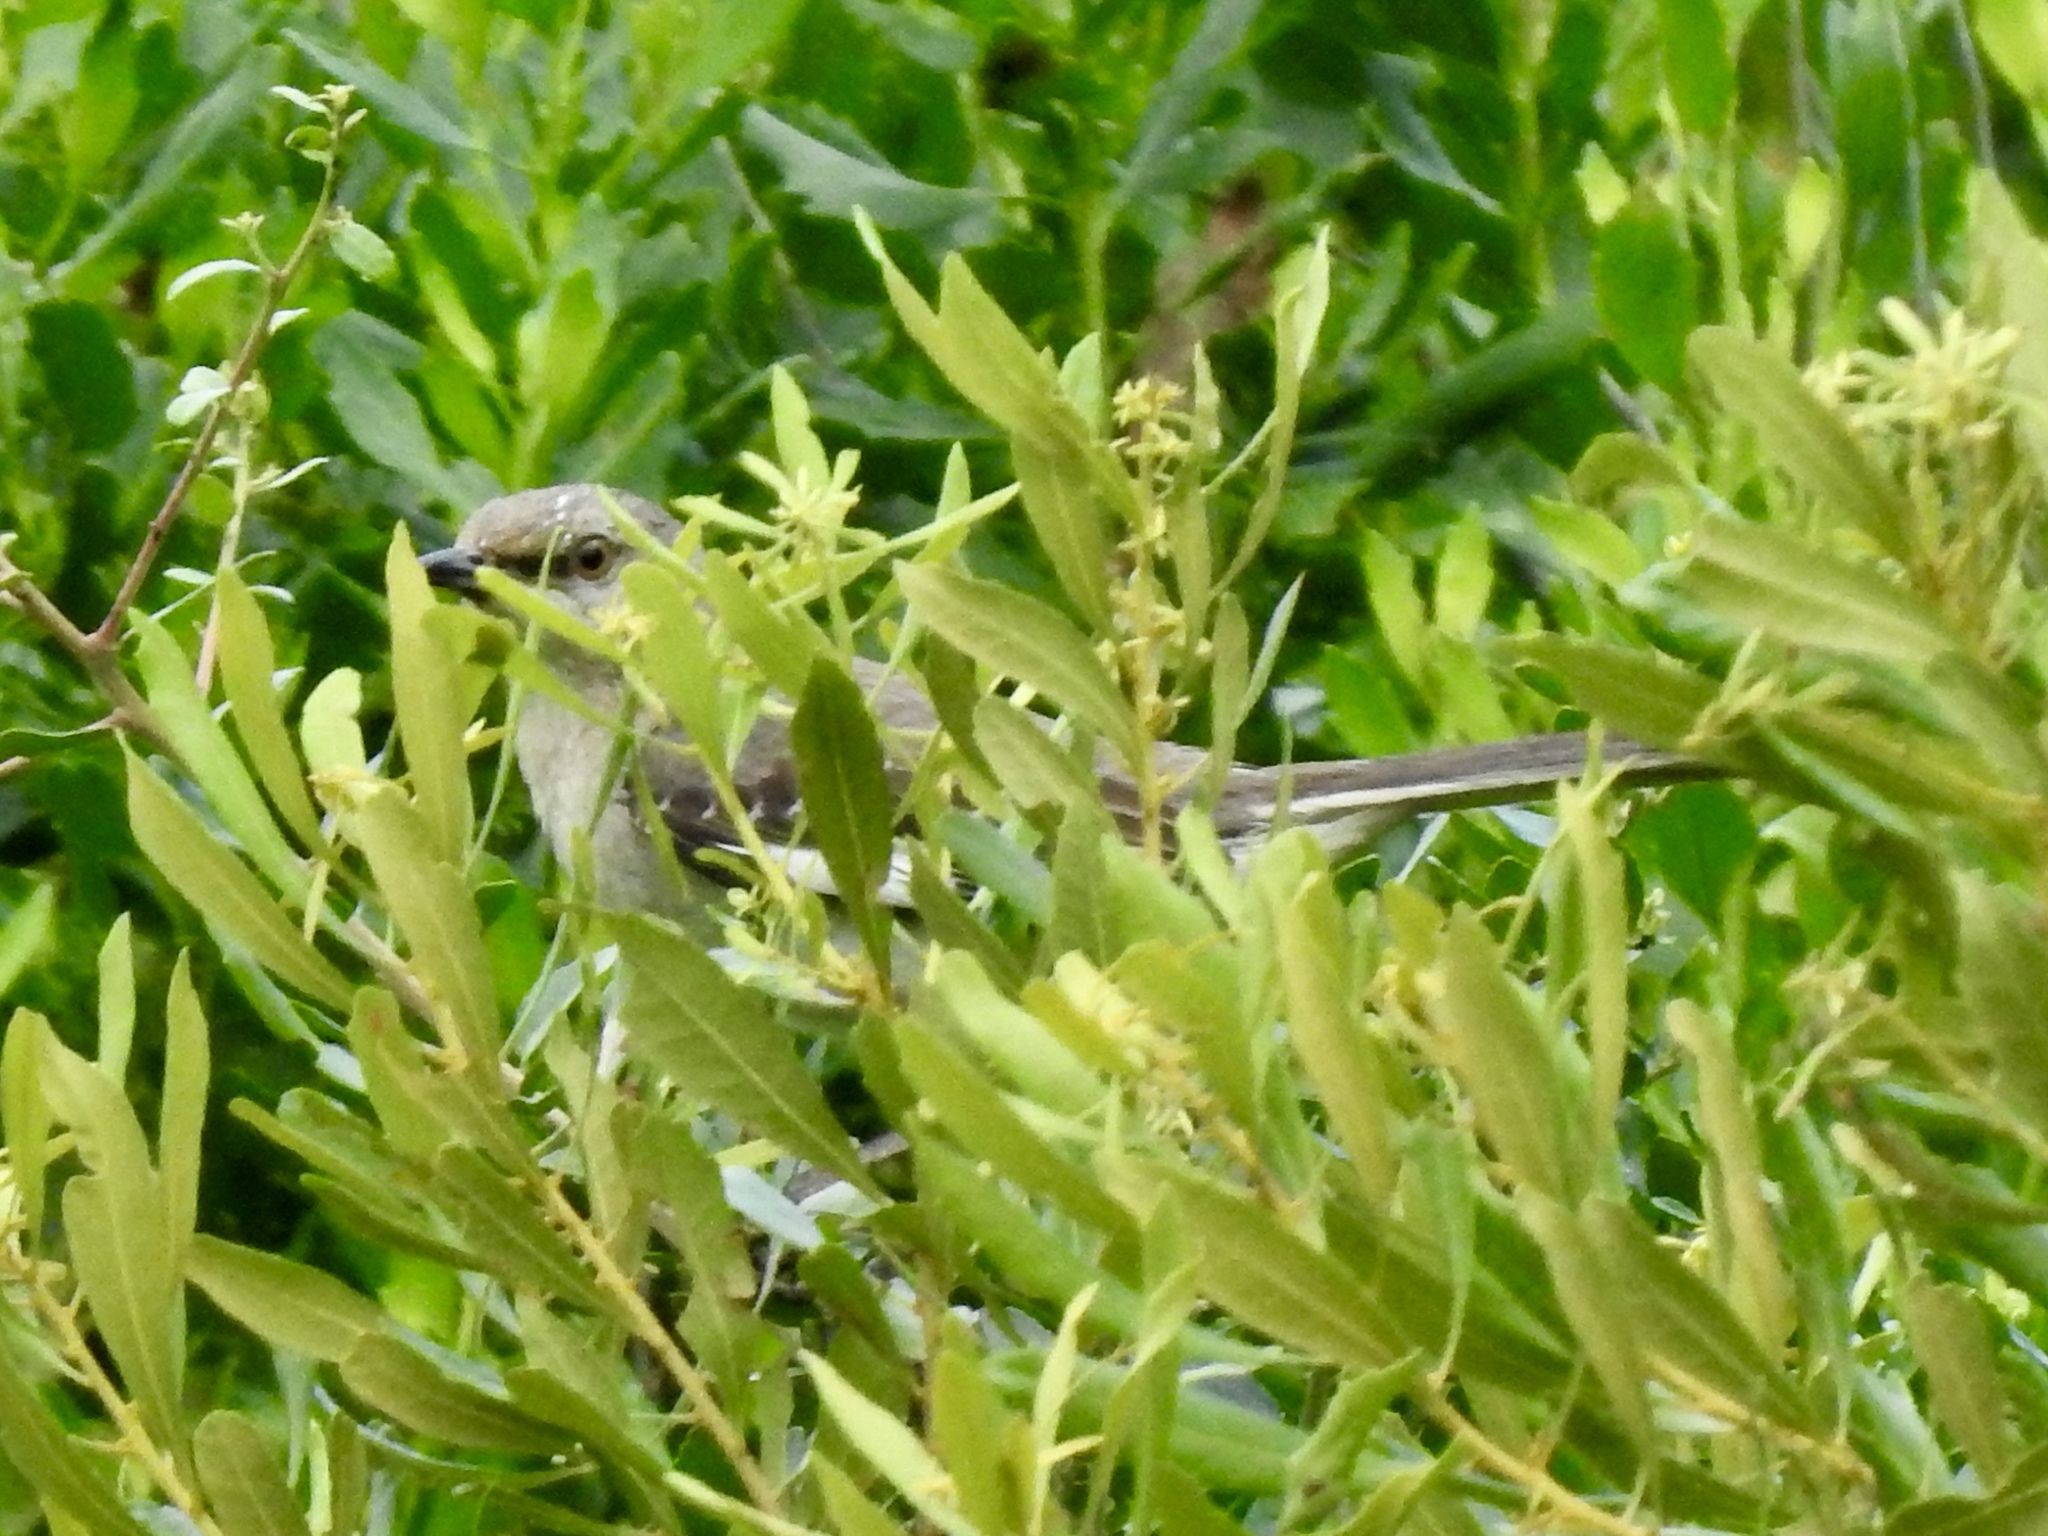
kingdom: Animalia
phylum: Chordata
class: Aves
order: Passeriformes
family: Mimidae
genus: Mimus
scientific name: Mimus polyglottos
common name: Northern mockingbird
